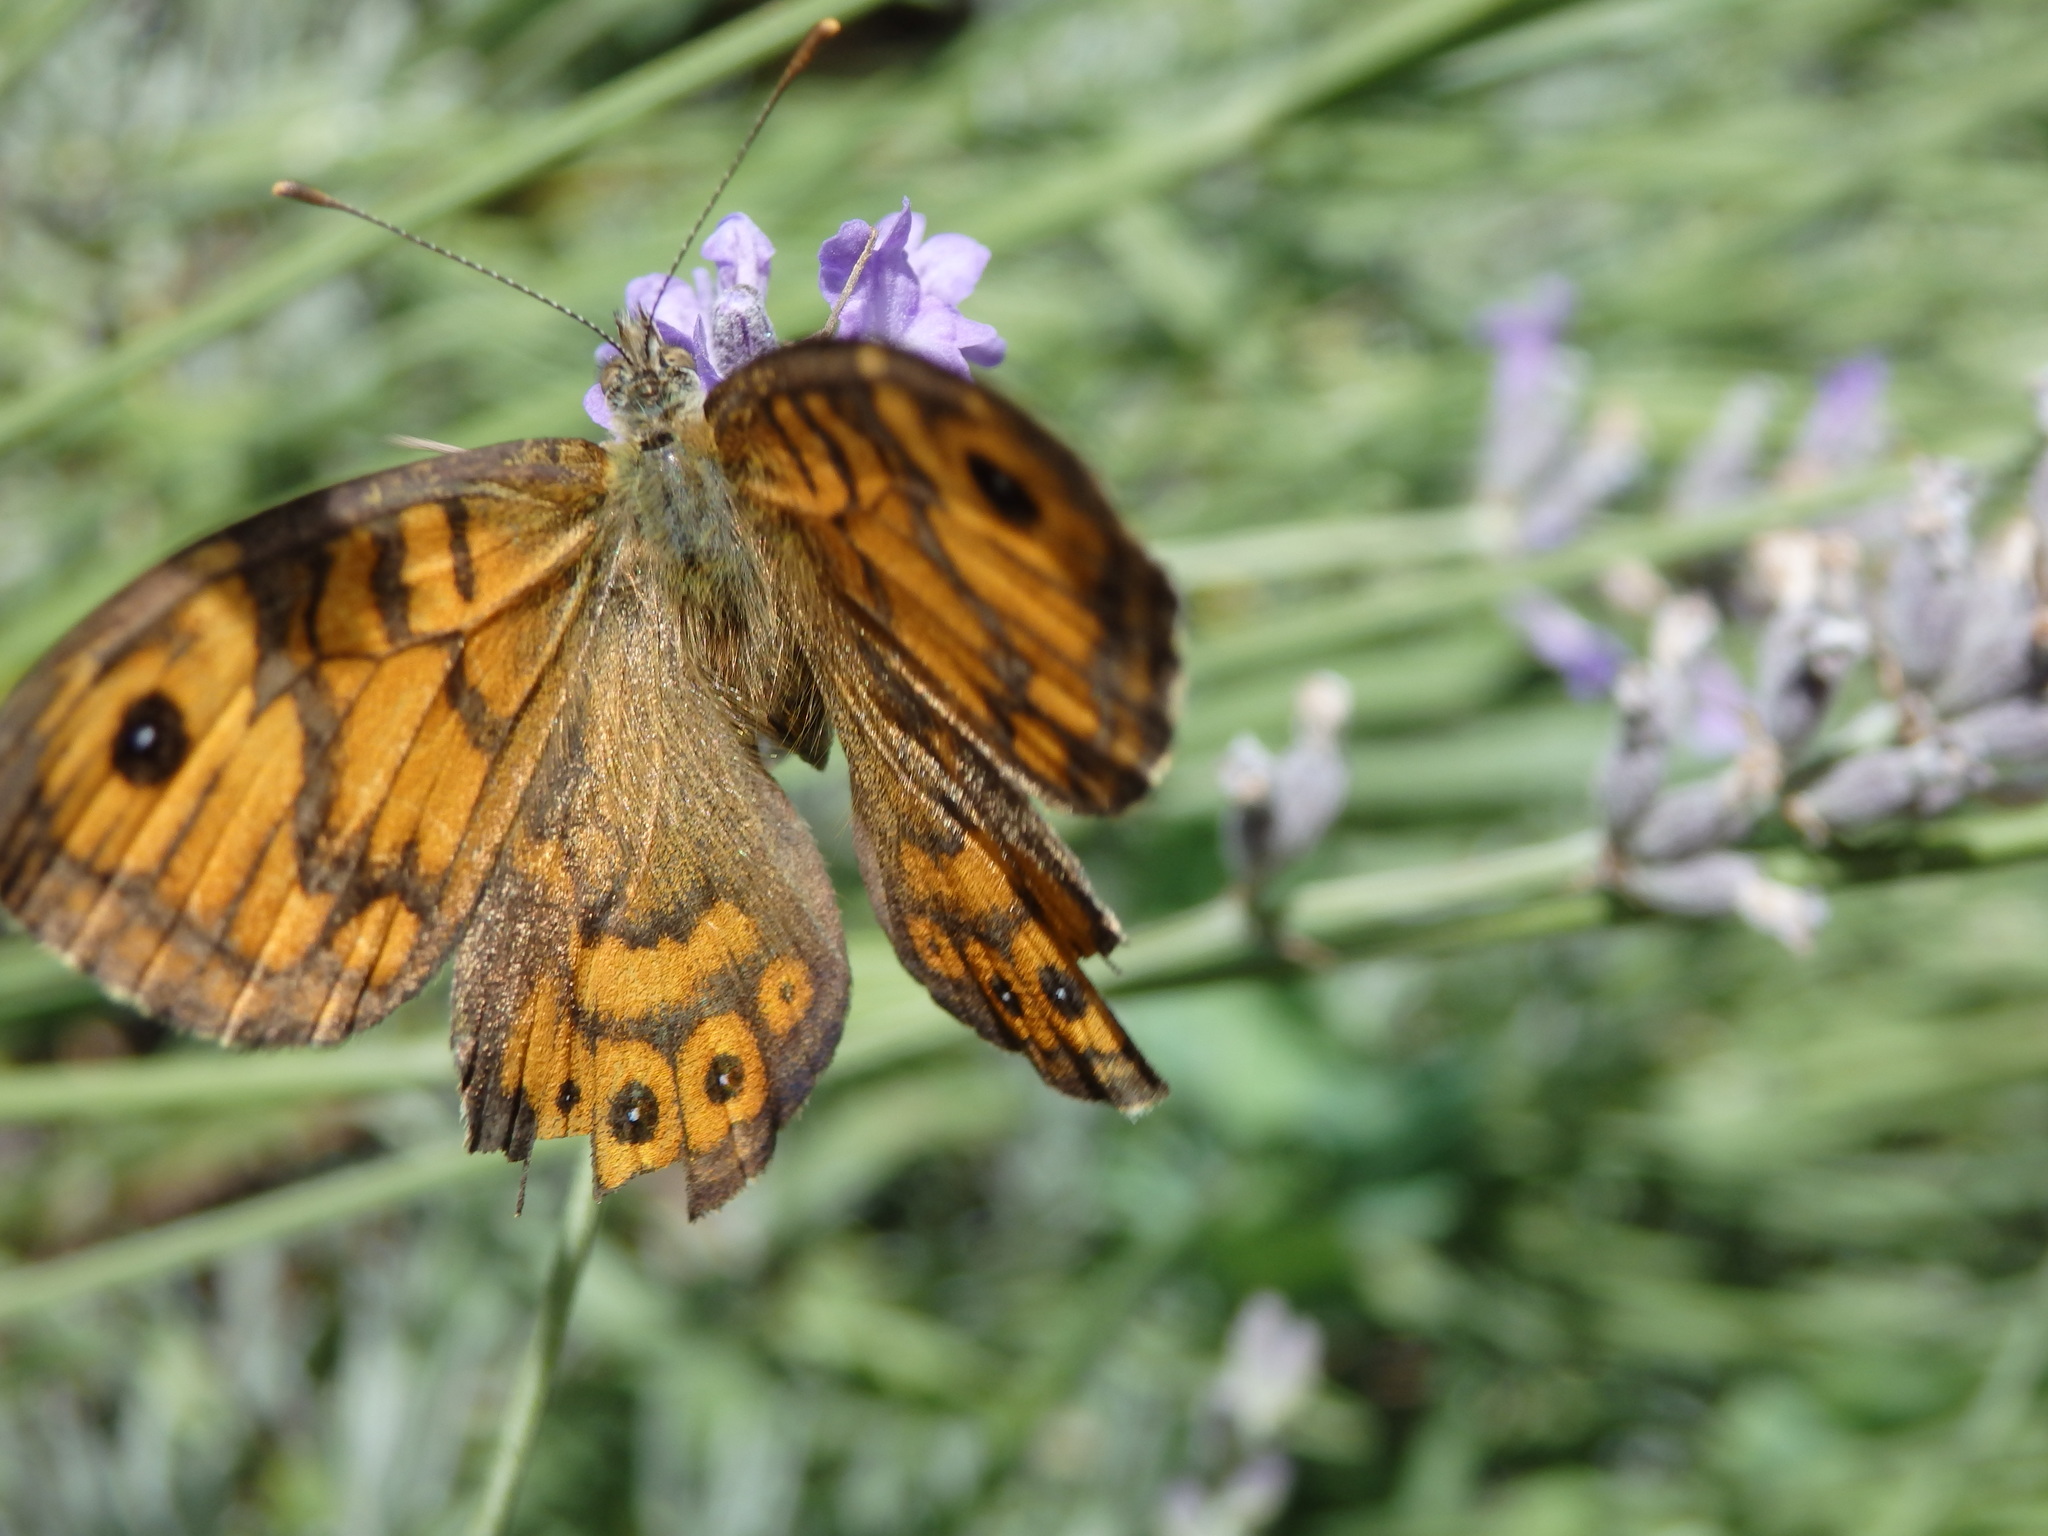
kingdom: Animalia
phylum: Arthropoda
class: Insecta
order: Lepidoptera
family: Nymphalidae
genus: Pararge
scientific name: Pararge Lasiommata megera
